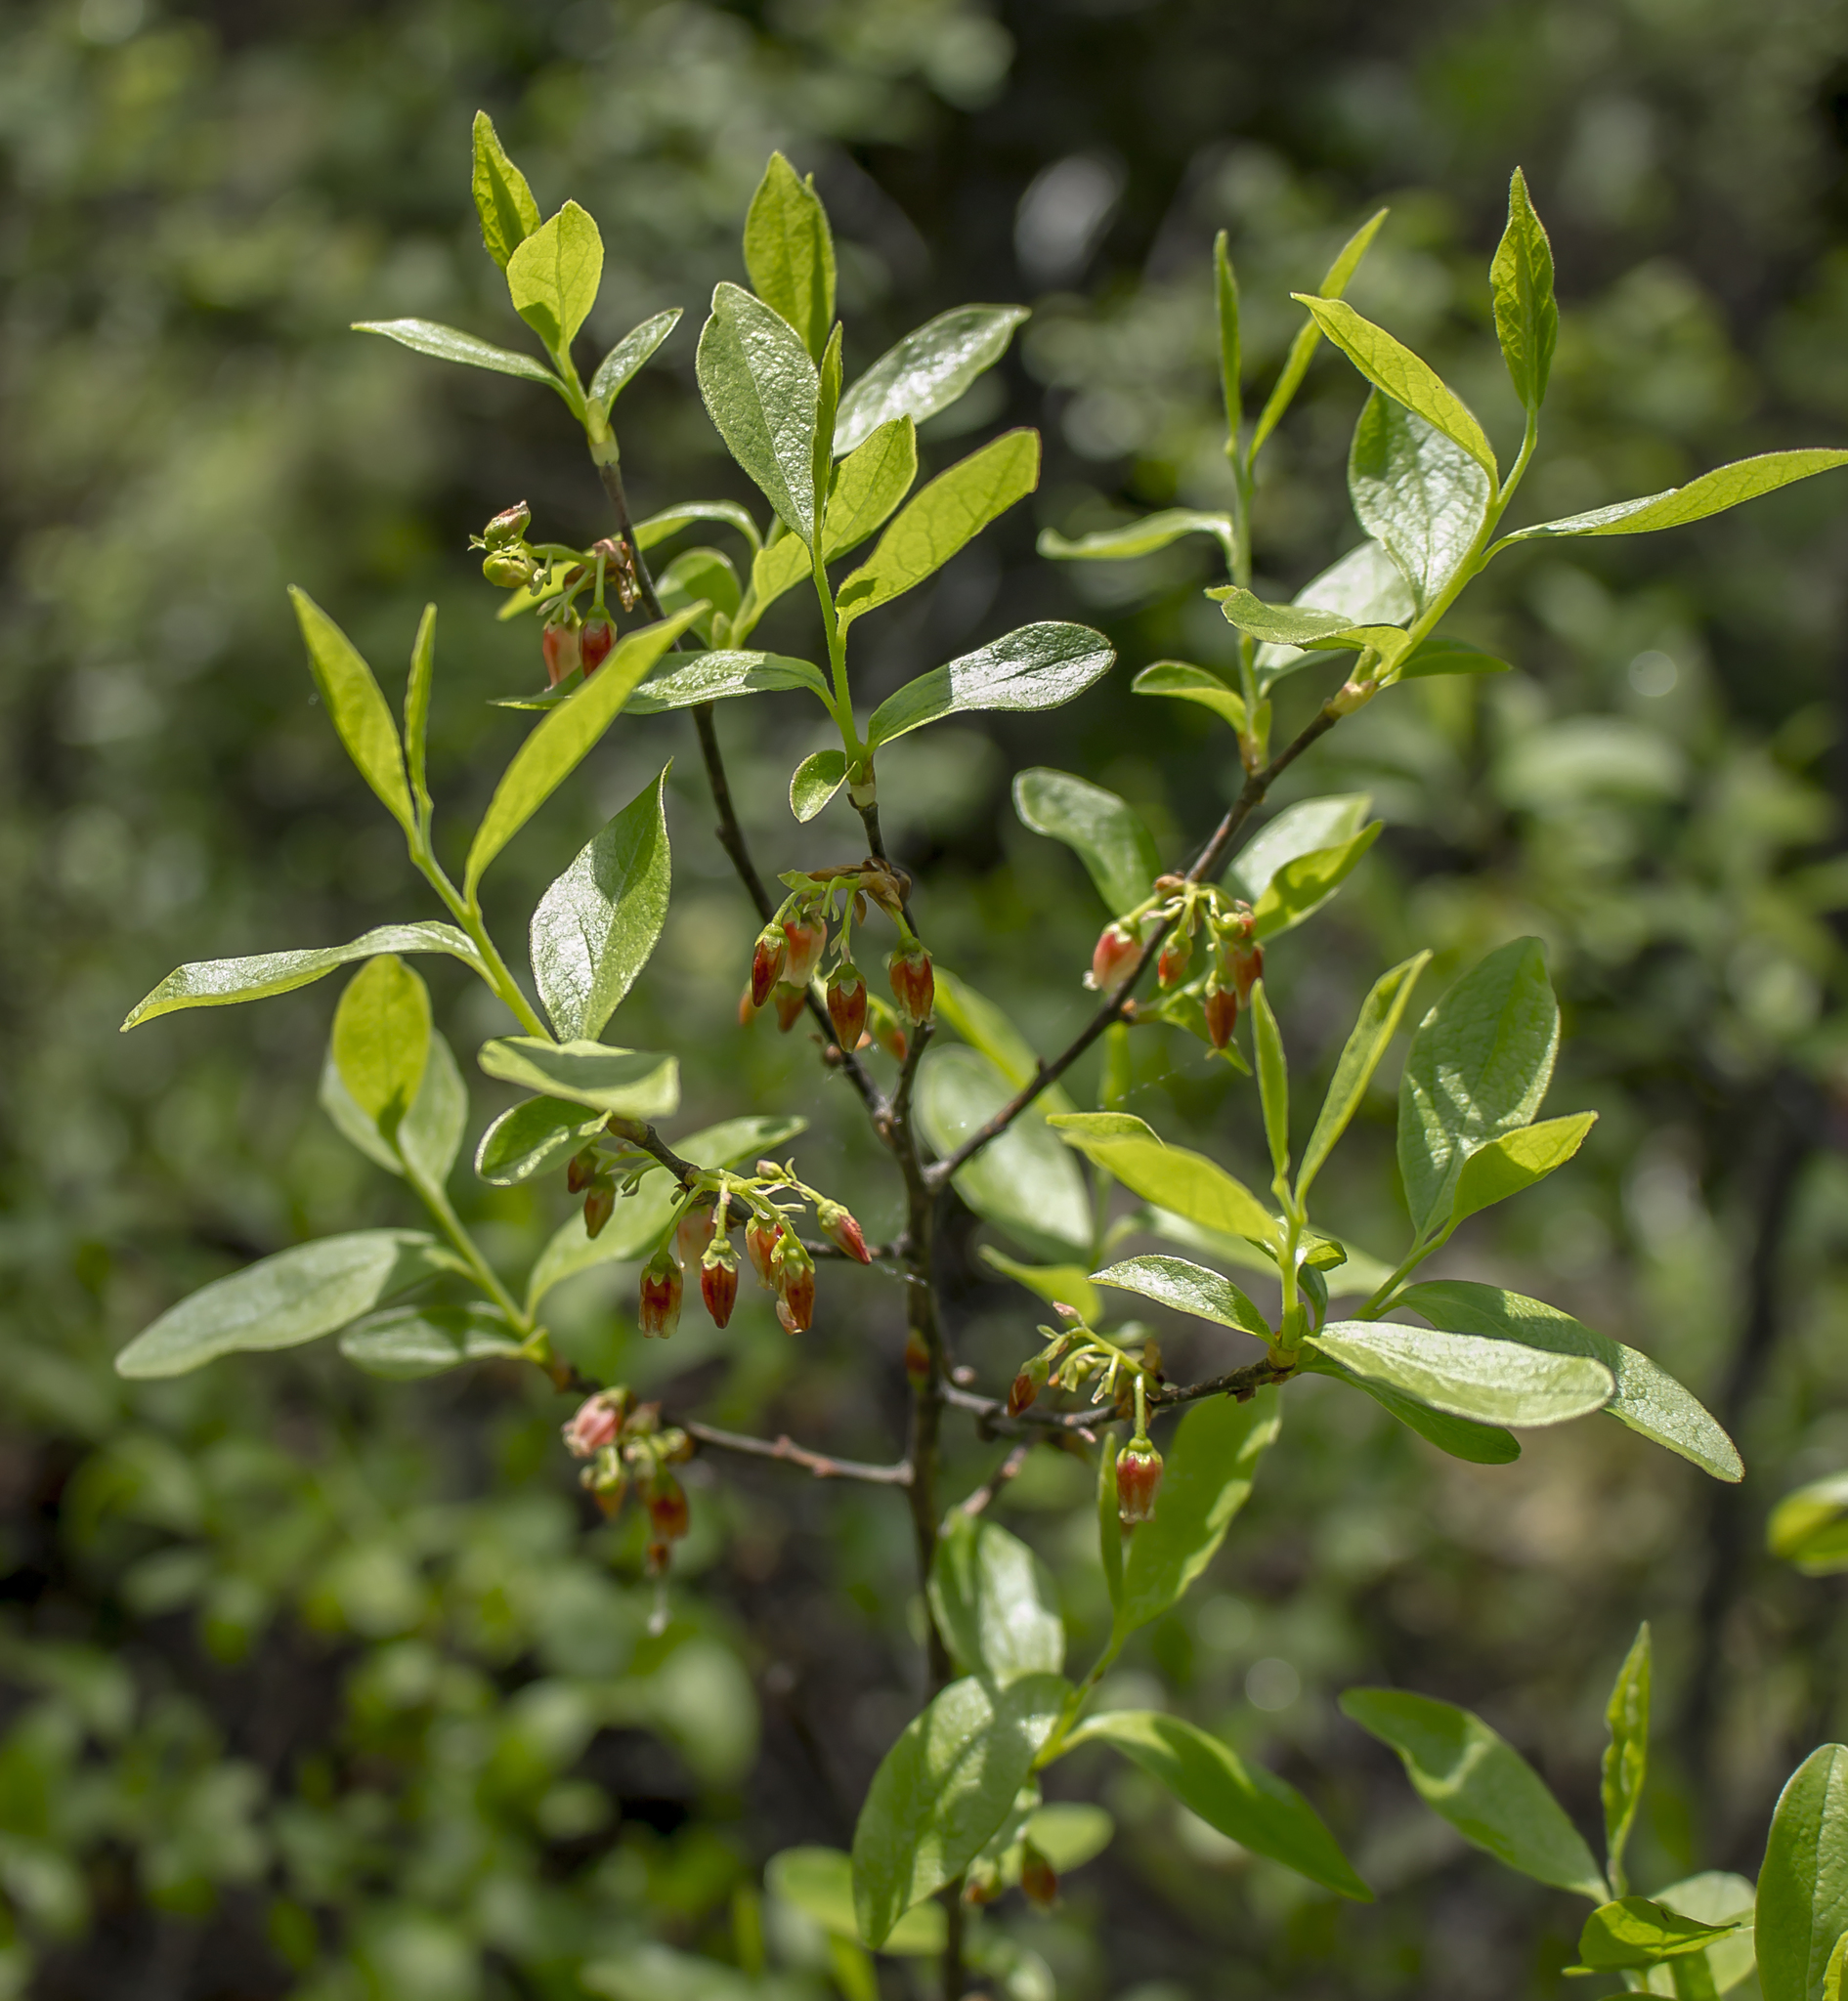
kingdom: Plantae
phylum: Tracheophyta
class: Magnoliopsida
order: Ericales
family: Ericaceae
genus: Gaylussacia
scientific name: Gaylussacia baccata
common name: Black huckleberry
